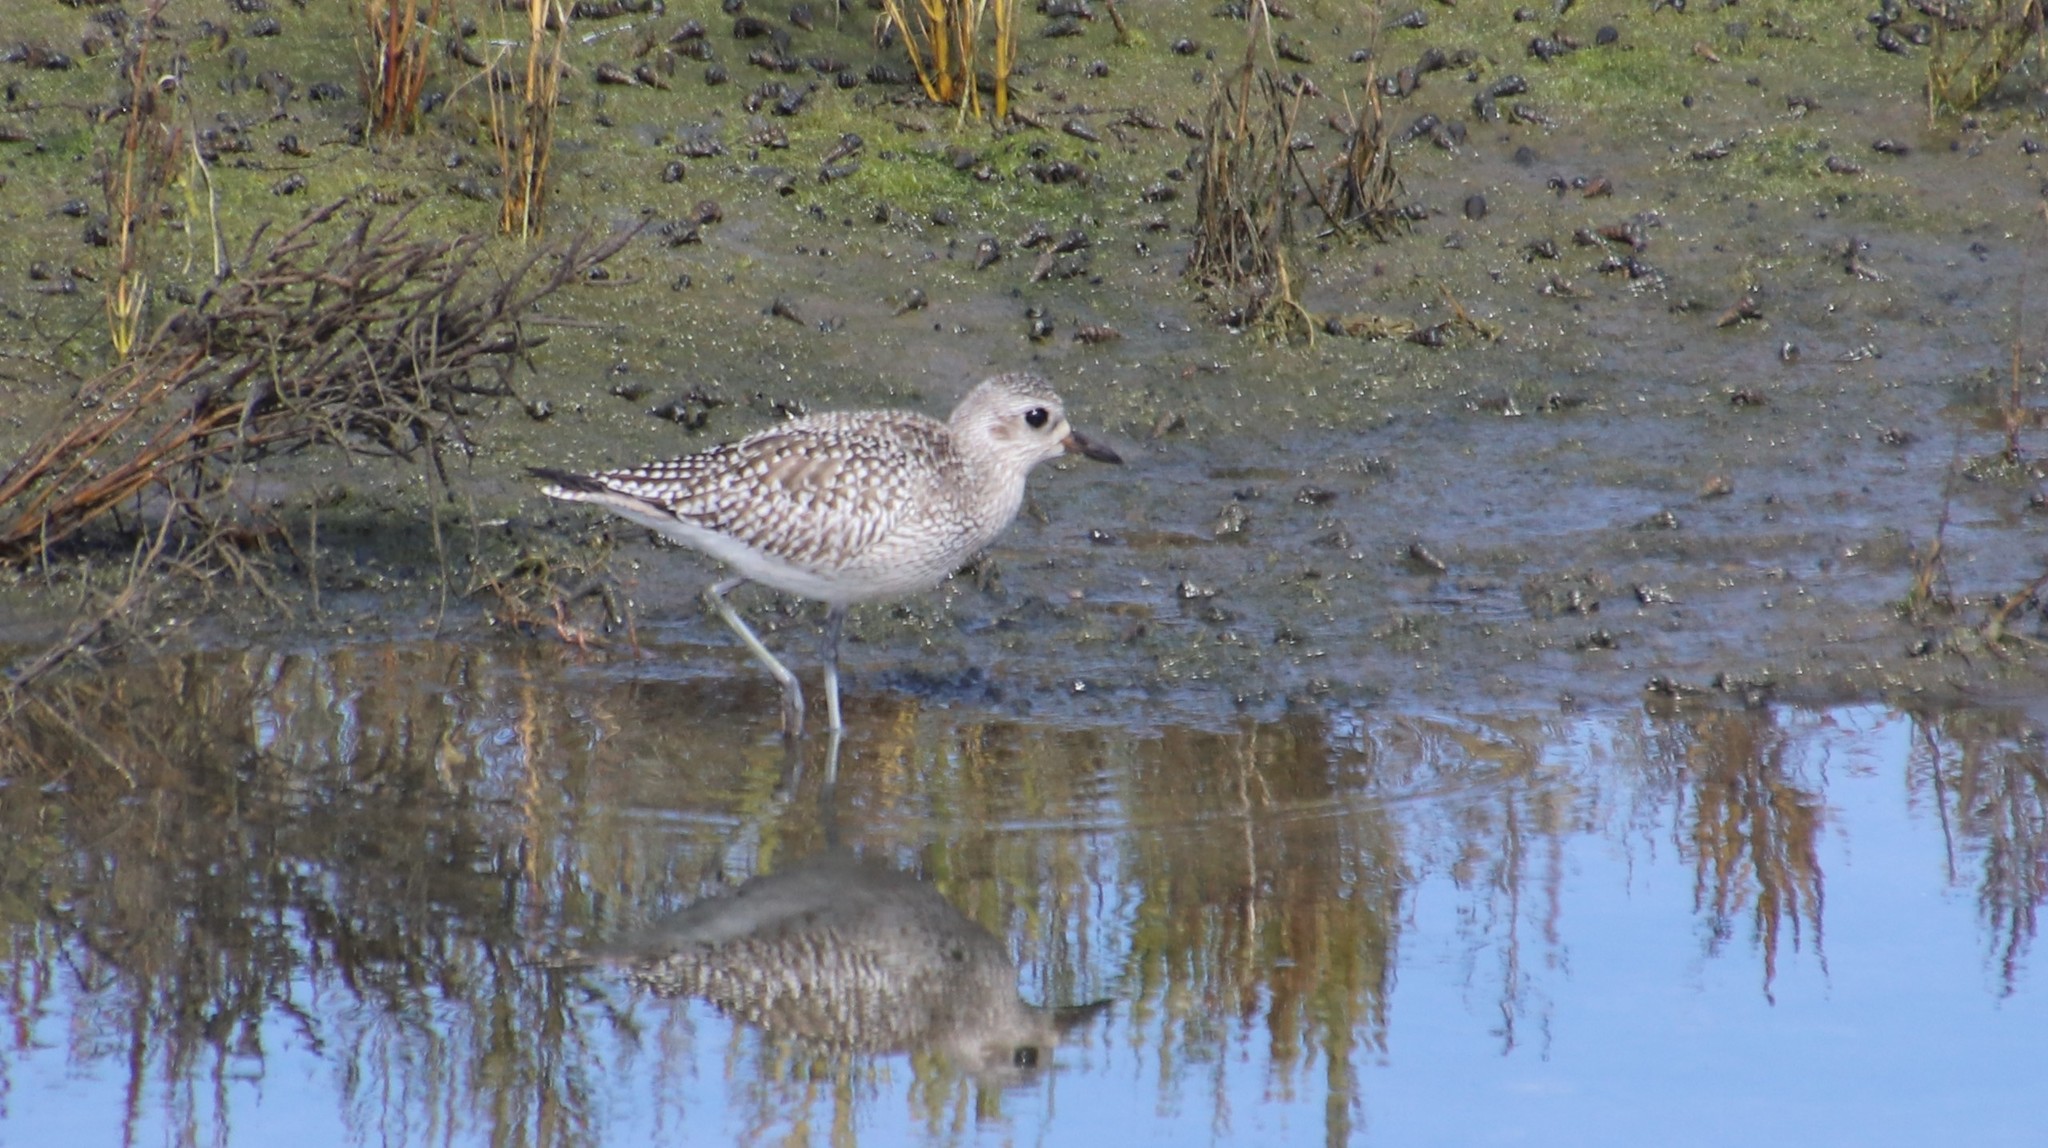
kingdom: Animalia
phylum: Chordata
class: Aves
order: Charadriiformes
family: Charadriidae
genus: Pluvialis
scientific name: Pluvialis squatarola
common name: Grey plover
